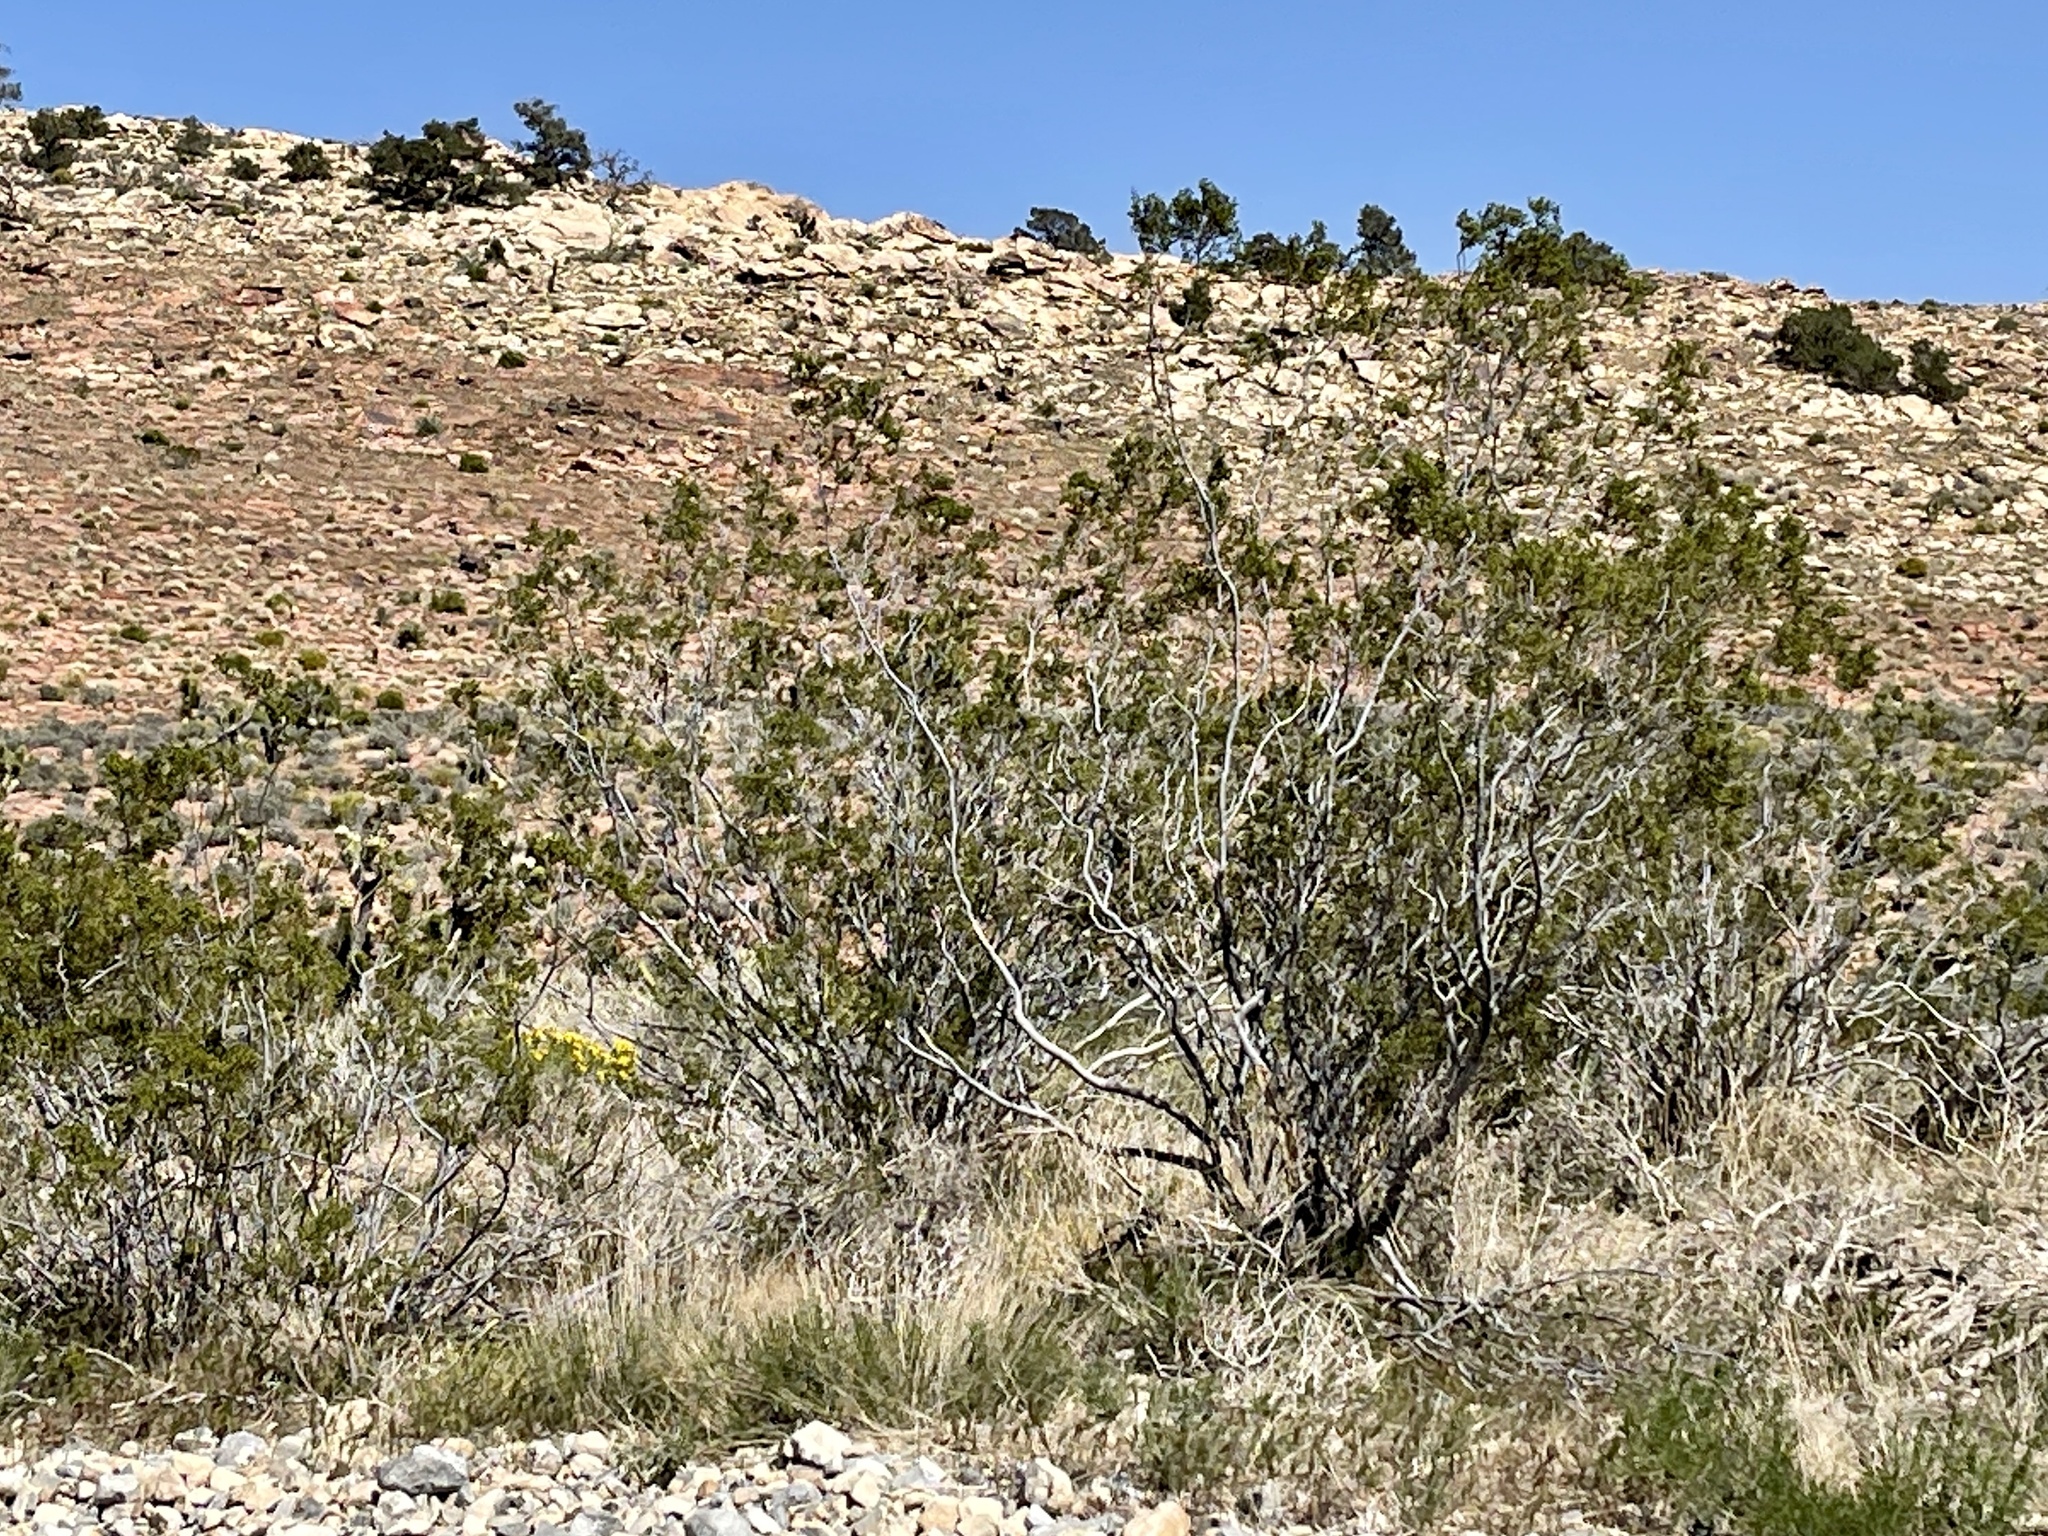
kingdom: Plantae
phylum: Tracheophyta
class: Magnoliopsida
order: Zygophyllales
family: Zygophyllaceae
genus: Larrea
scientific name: Larrea tridentata
